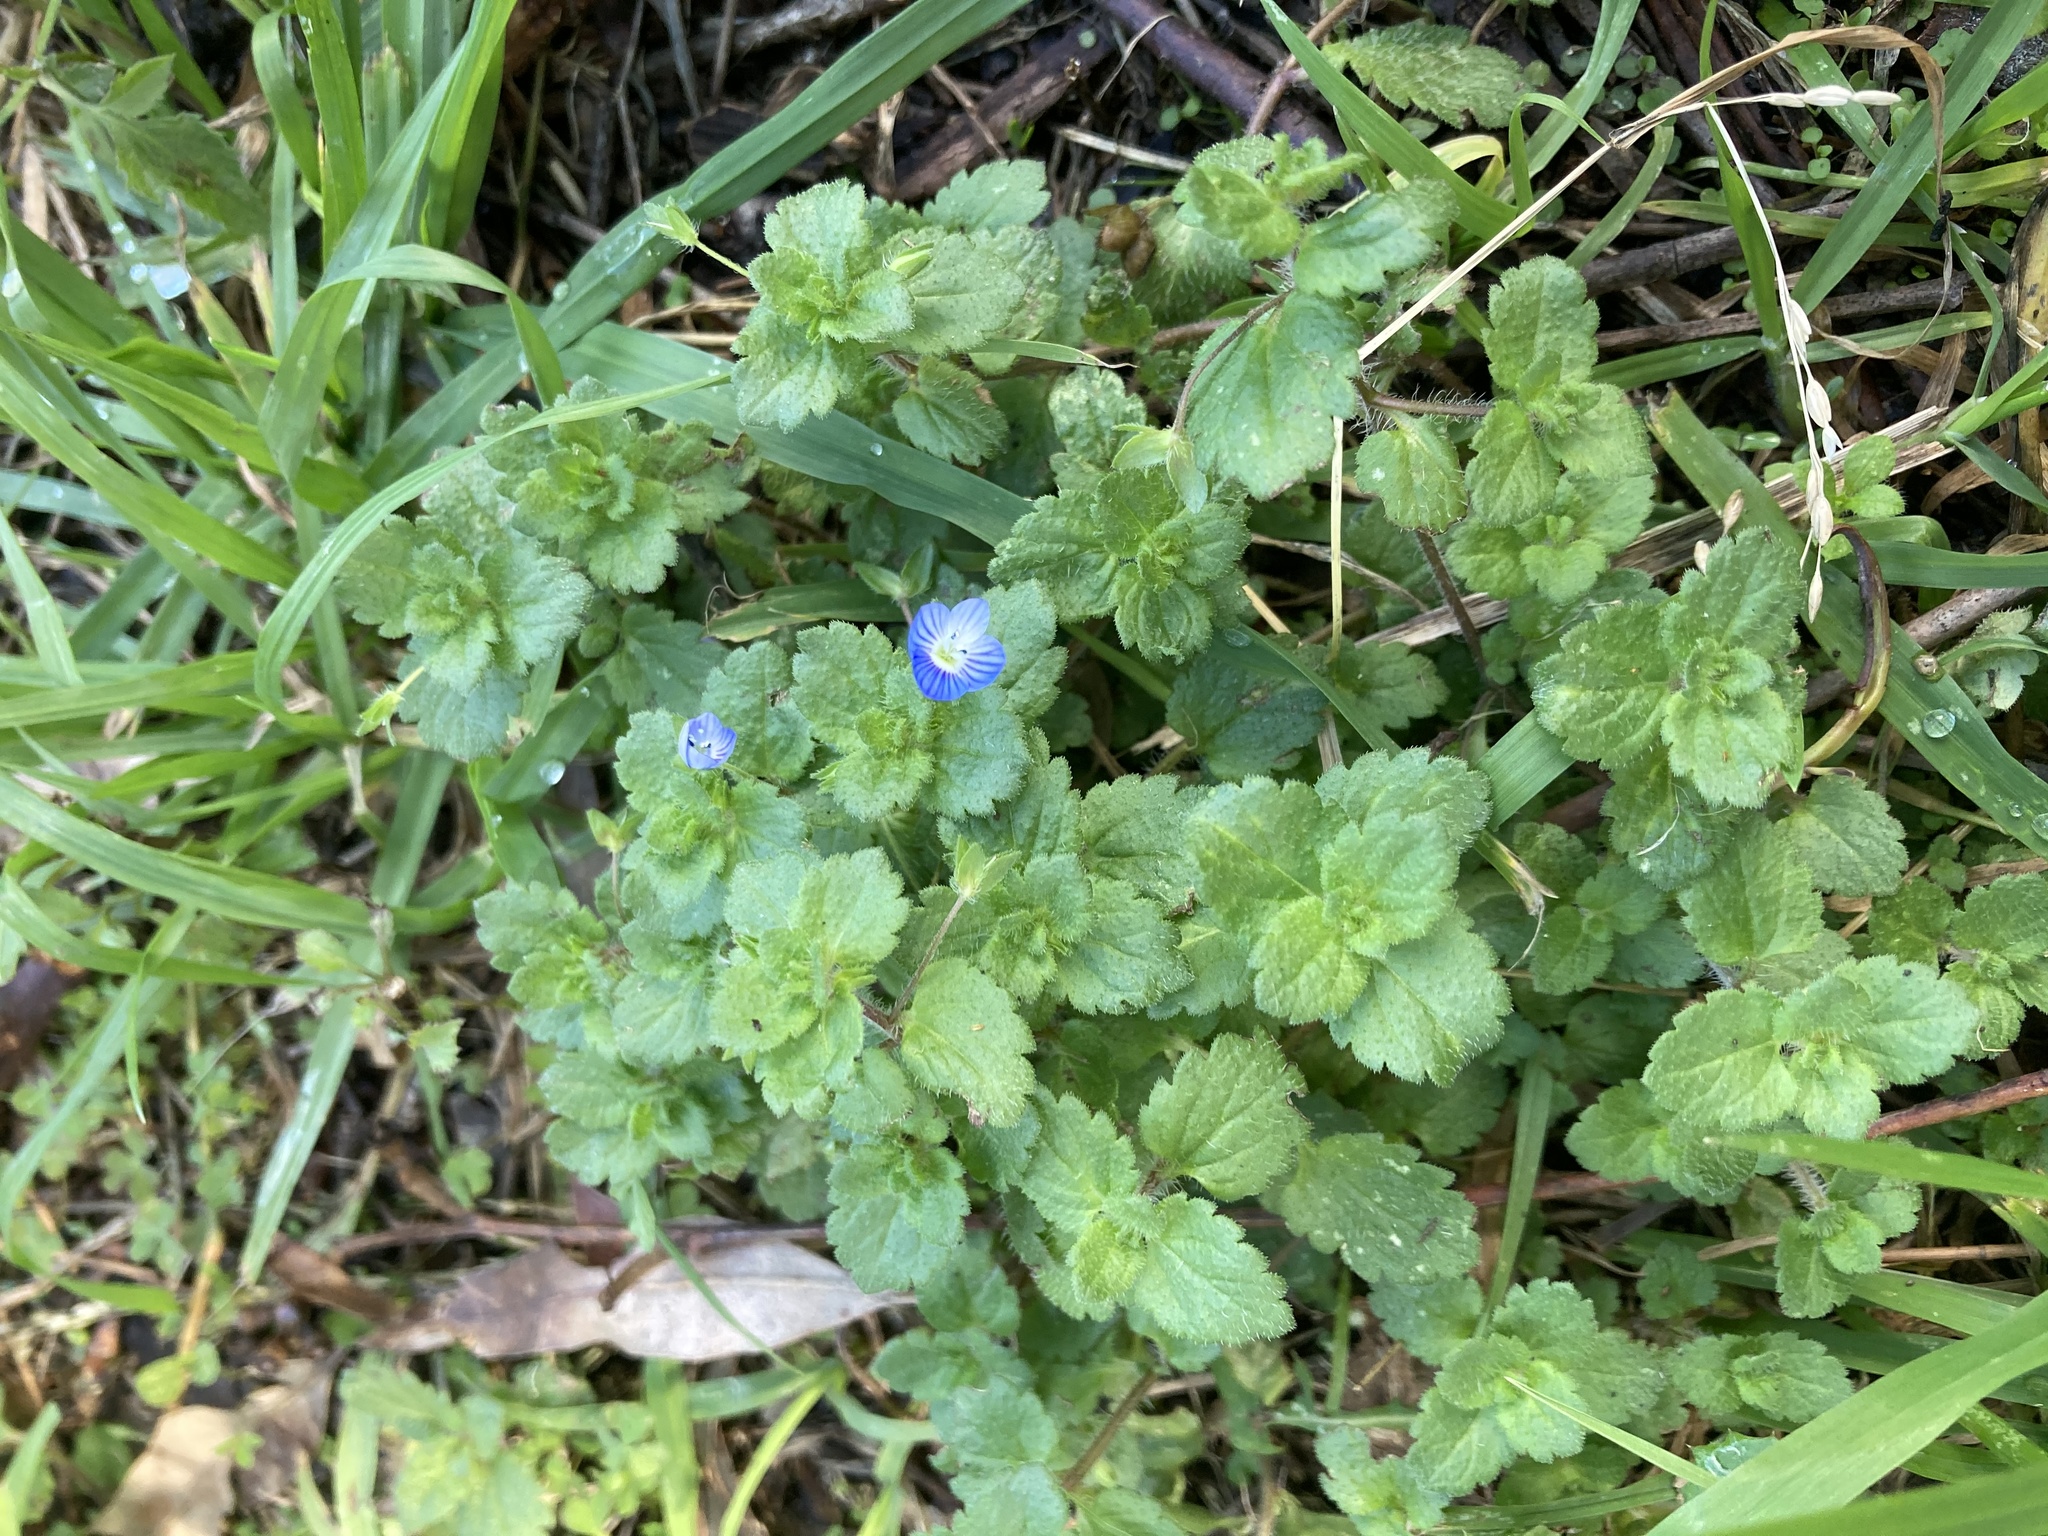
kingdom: Plantae
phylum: Tracheophyta
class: Magnoliopsida
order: Lamiales
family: Plantaginaceae
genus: Veronica
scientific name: Veronica persica
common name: Common field-speedwell
